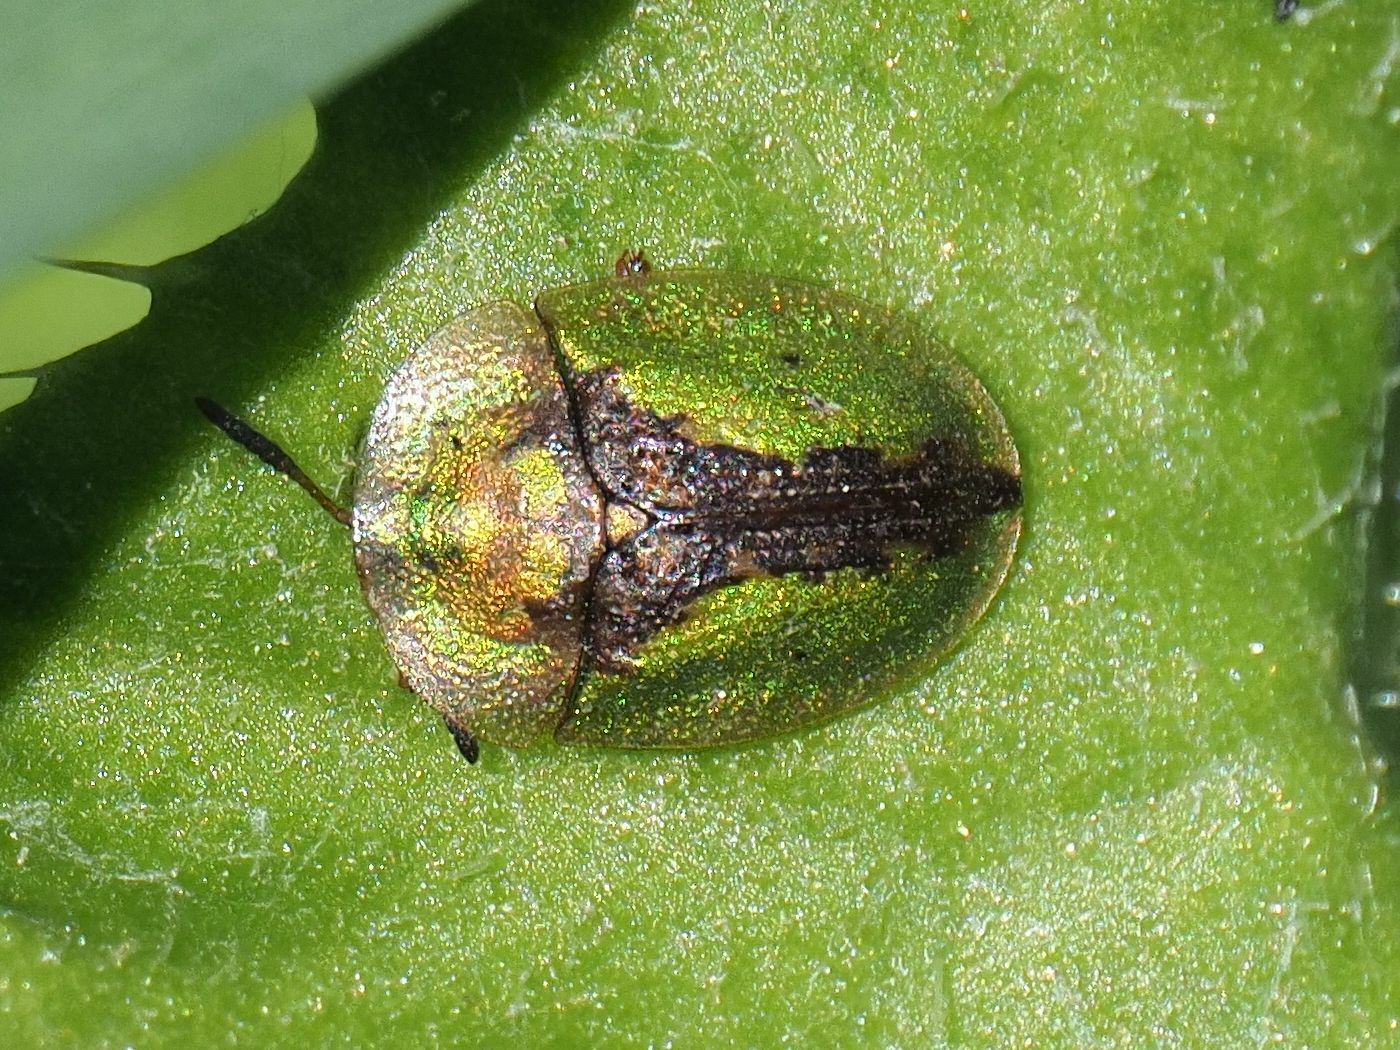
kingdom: Animalia
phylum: Arthropoda
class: Insecta
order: Coleoptera
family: Chrysomelidae
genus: Cassida
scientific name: Cassida vibex
